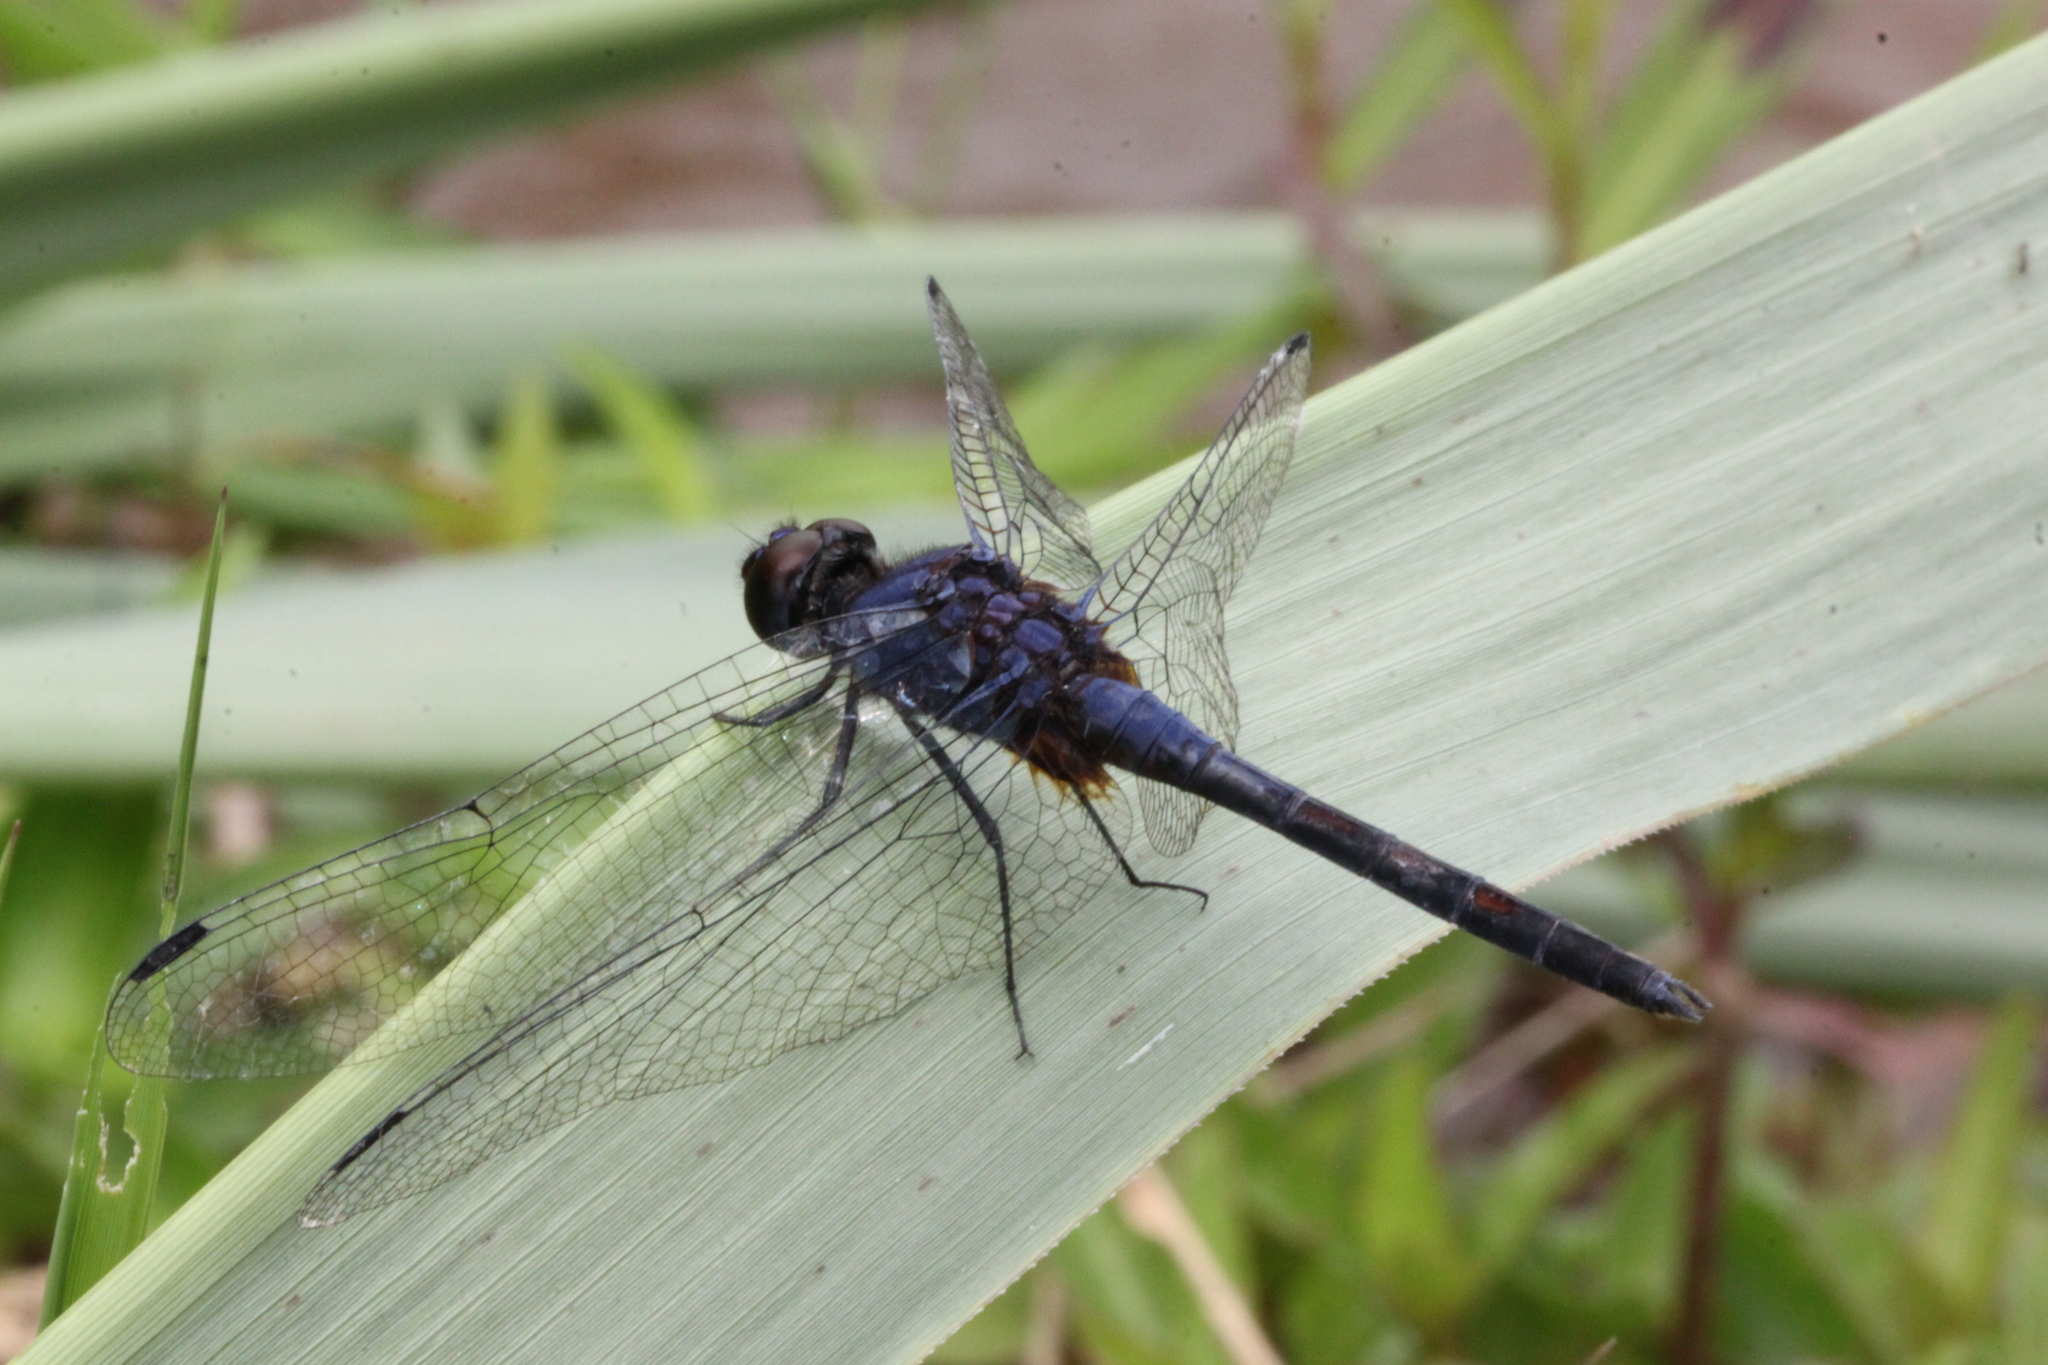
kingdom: Animalia
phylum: Arthropoda
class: Insecta
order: Odonata
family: Libellulidae
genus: Trithemis
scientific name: Trithemis festiva
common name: Indigo dropwing
